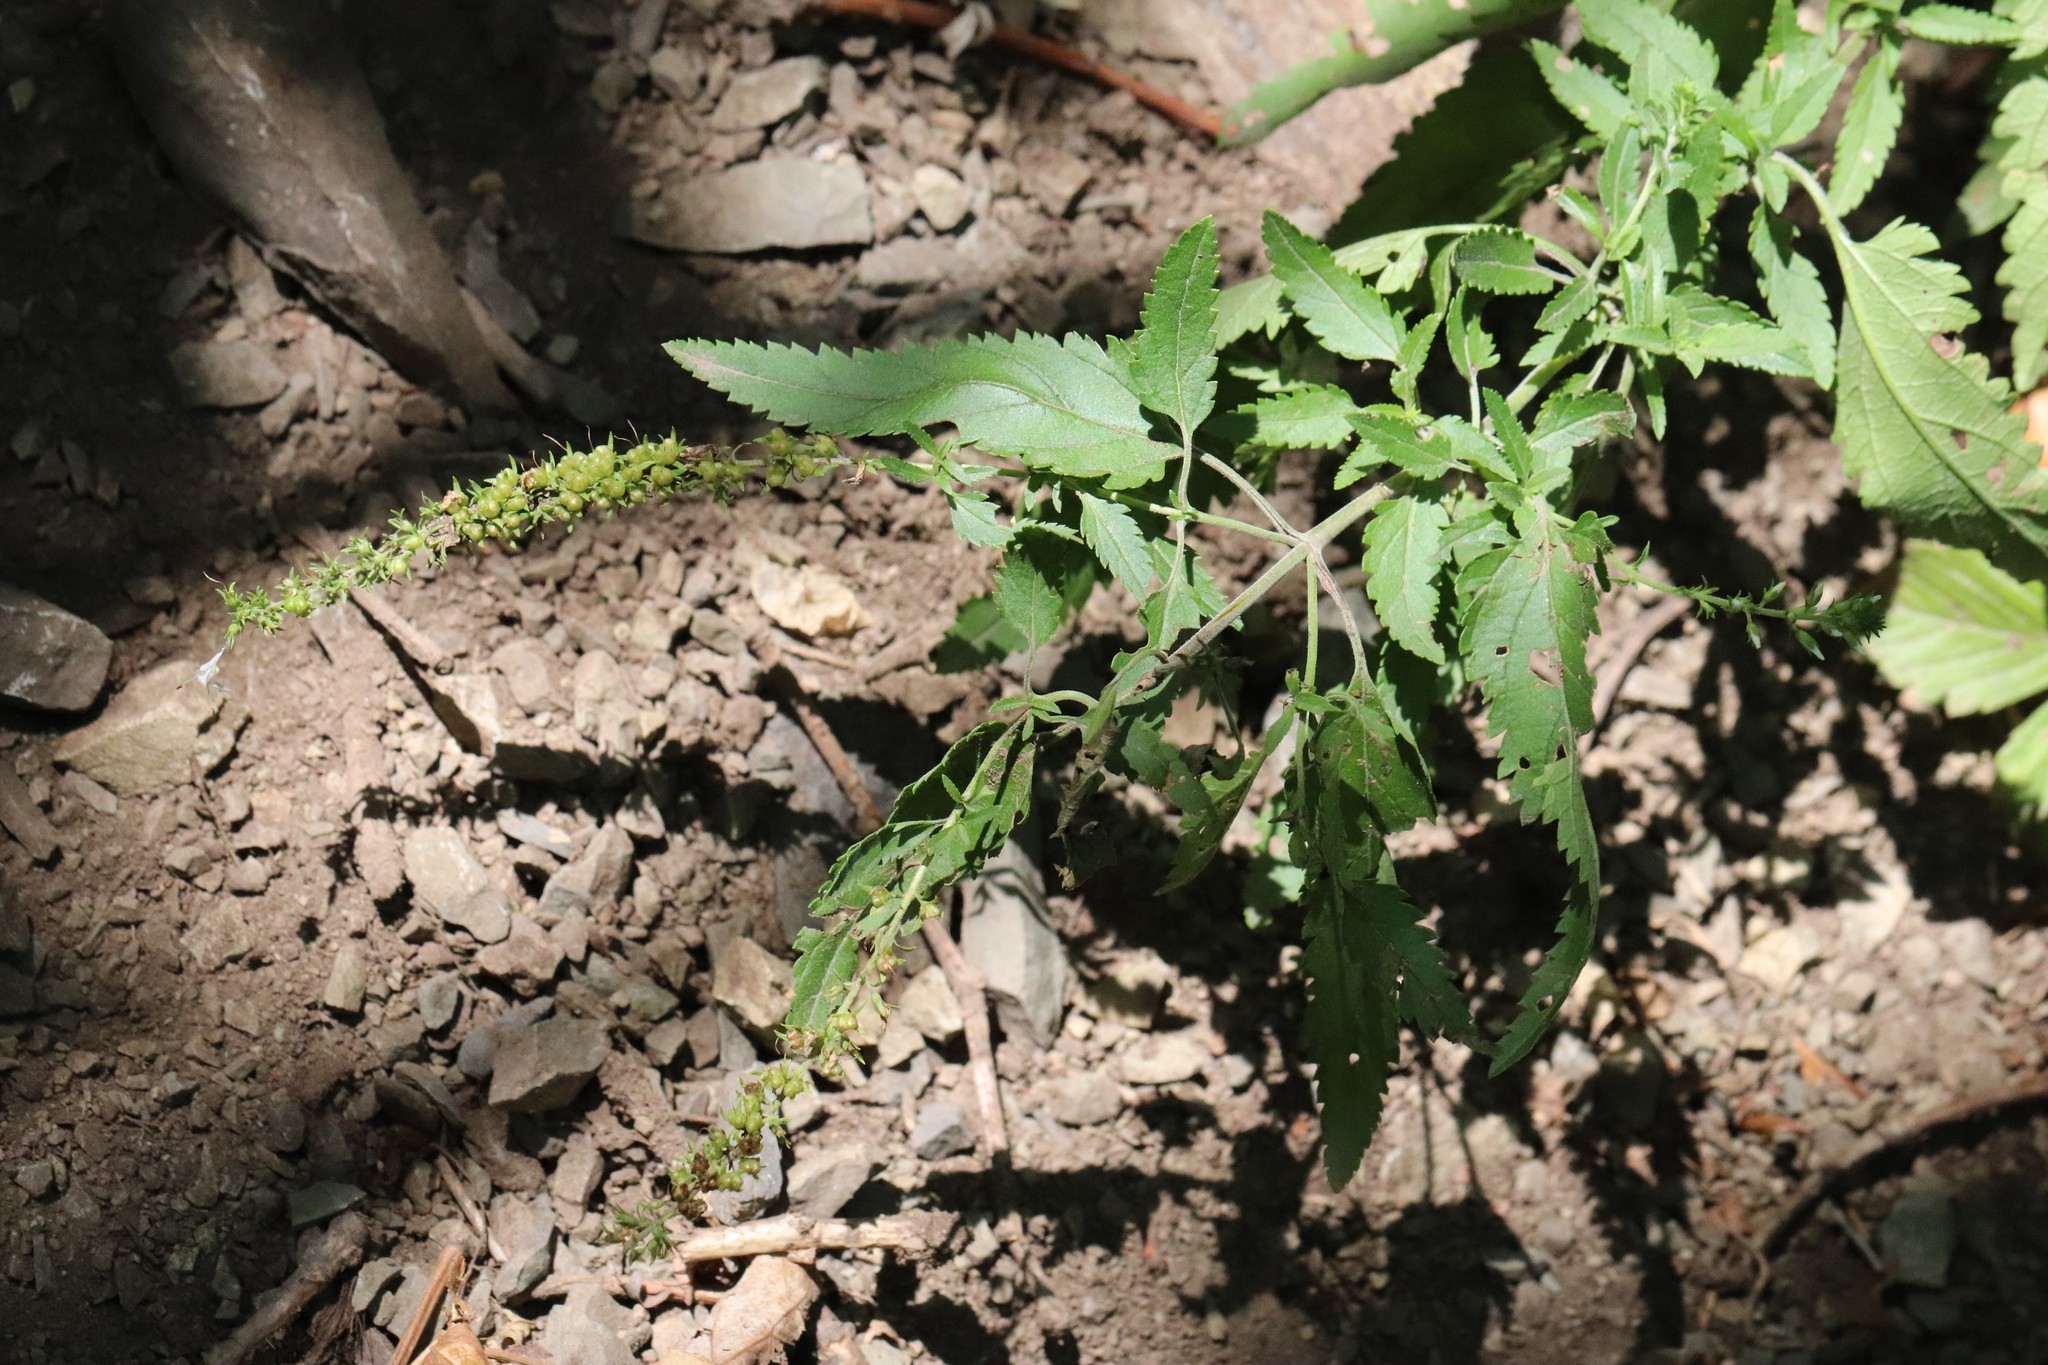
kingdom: Plantae
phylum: Tracheophyta
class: Magnoliopsida
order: Lamiales
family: Plantaginaceae
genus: Veronica
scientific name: Veronica daurica
